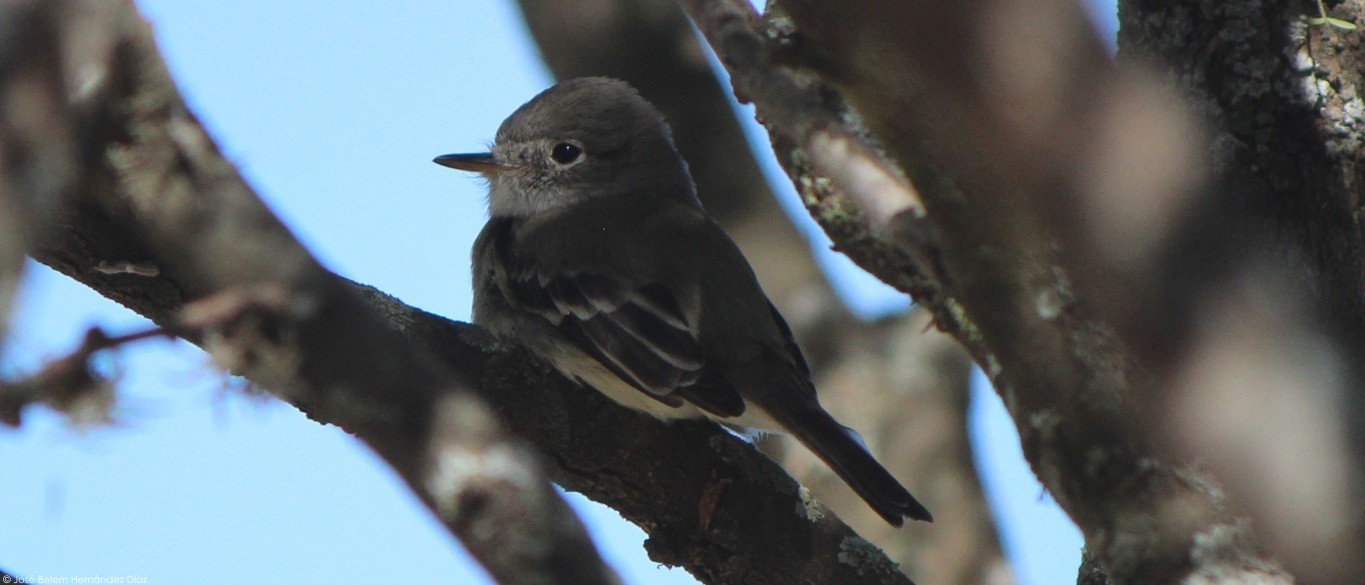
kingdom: Animalia
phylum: Chordata
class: Aves
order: Passeriformes
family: Tyrannidae
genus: Empidonax
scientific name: Empidonax wrightii
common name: Gray flycatcher
